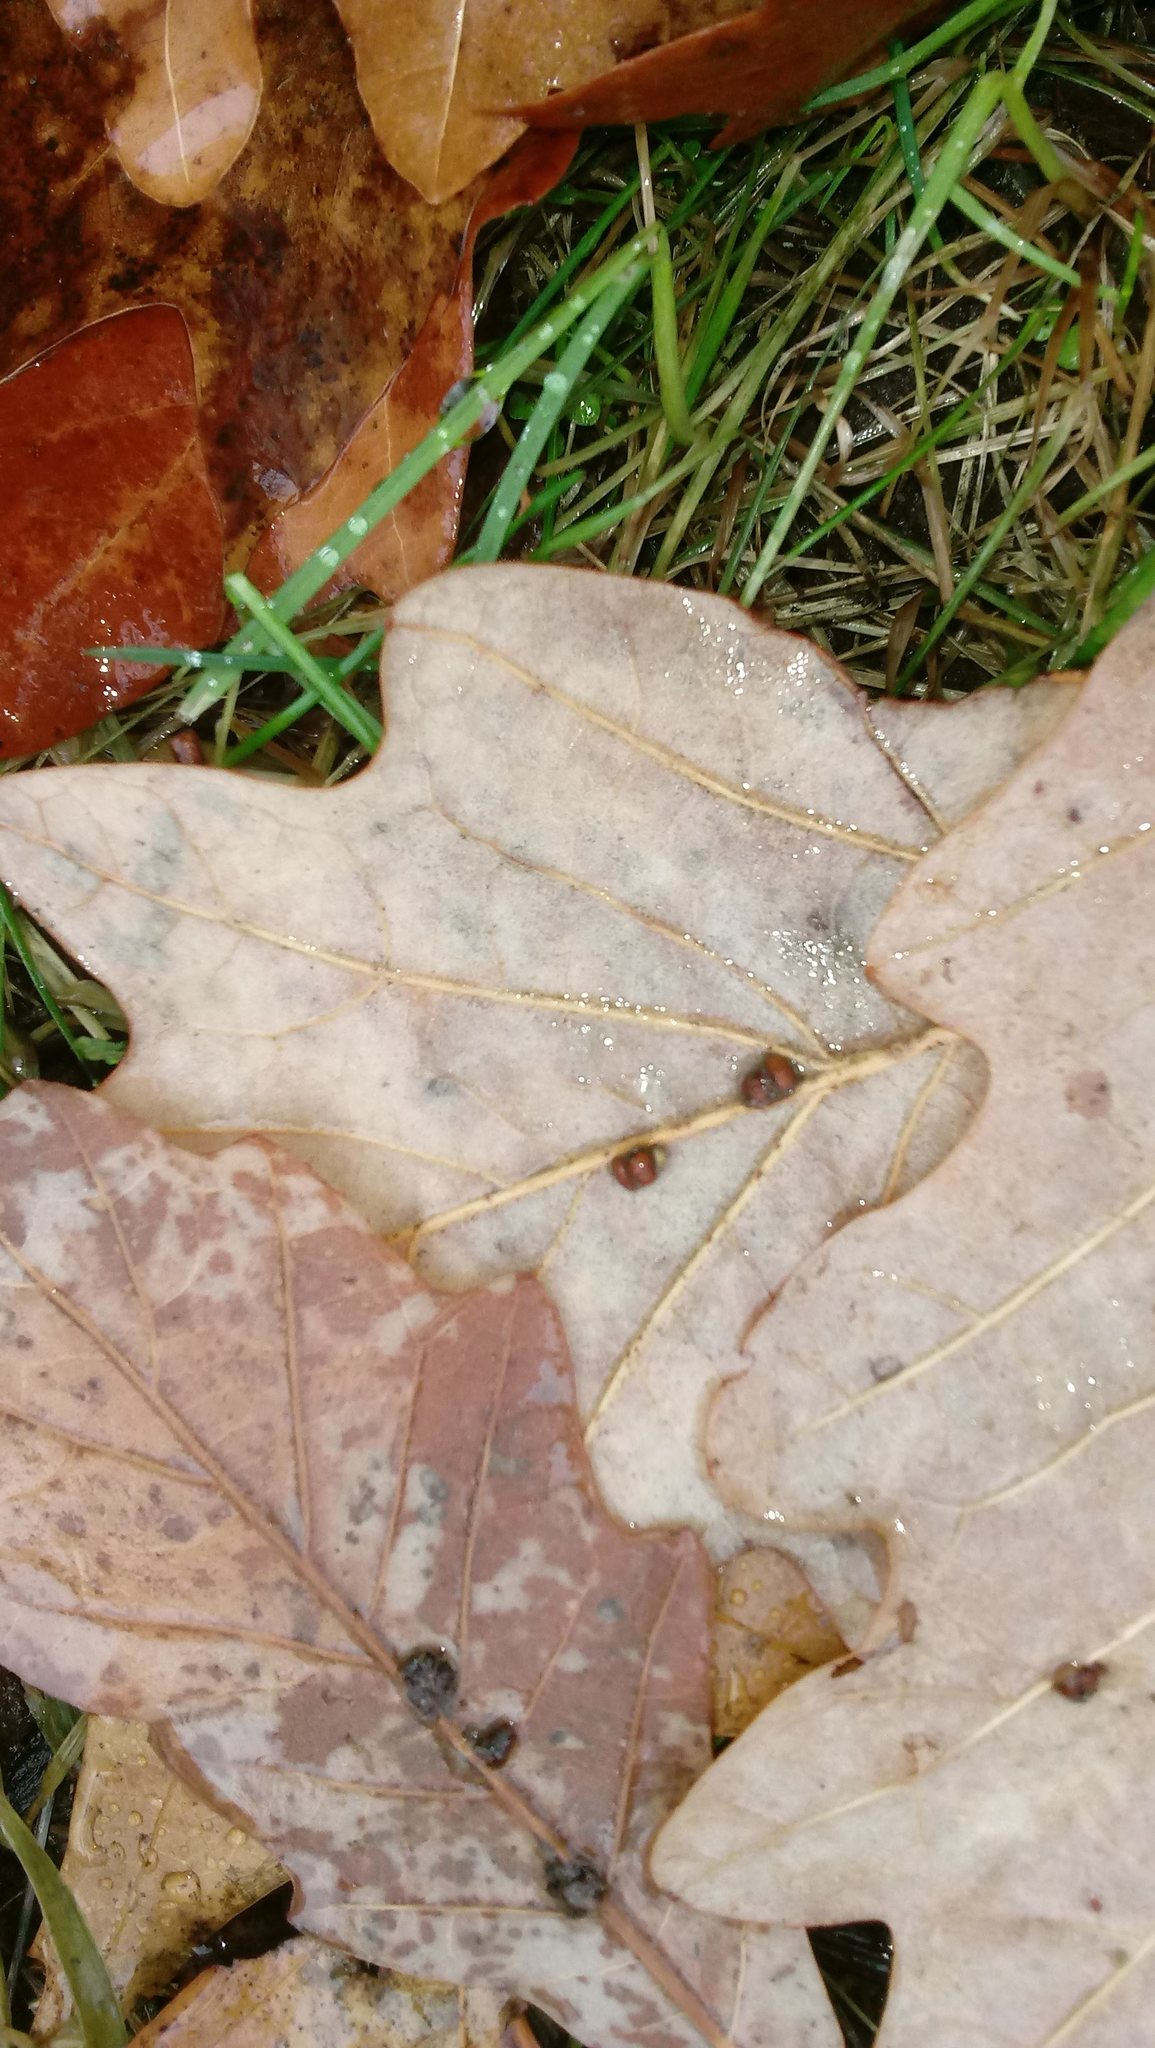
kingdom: Animalia
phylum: Arthropoda
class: Insecta
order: Hymenoptera
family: Cynipidae
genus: Andricus
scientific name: Andricus Druon ignotum
